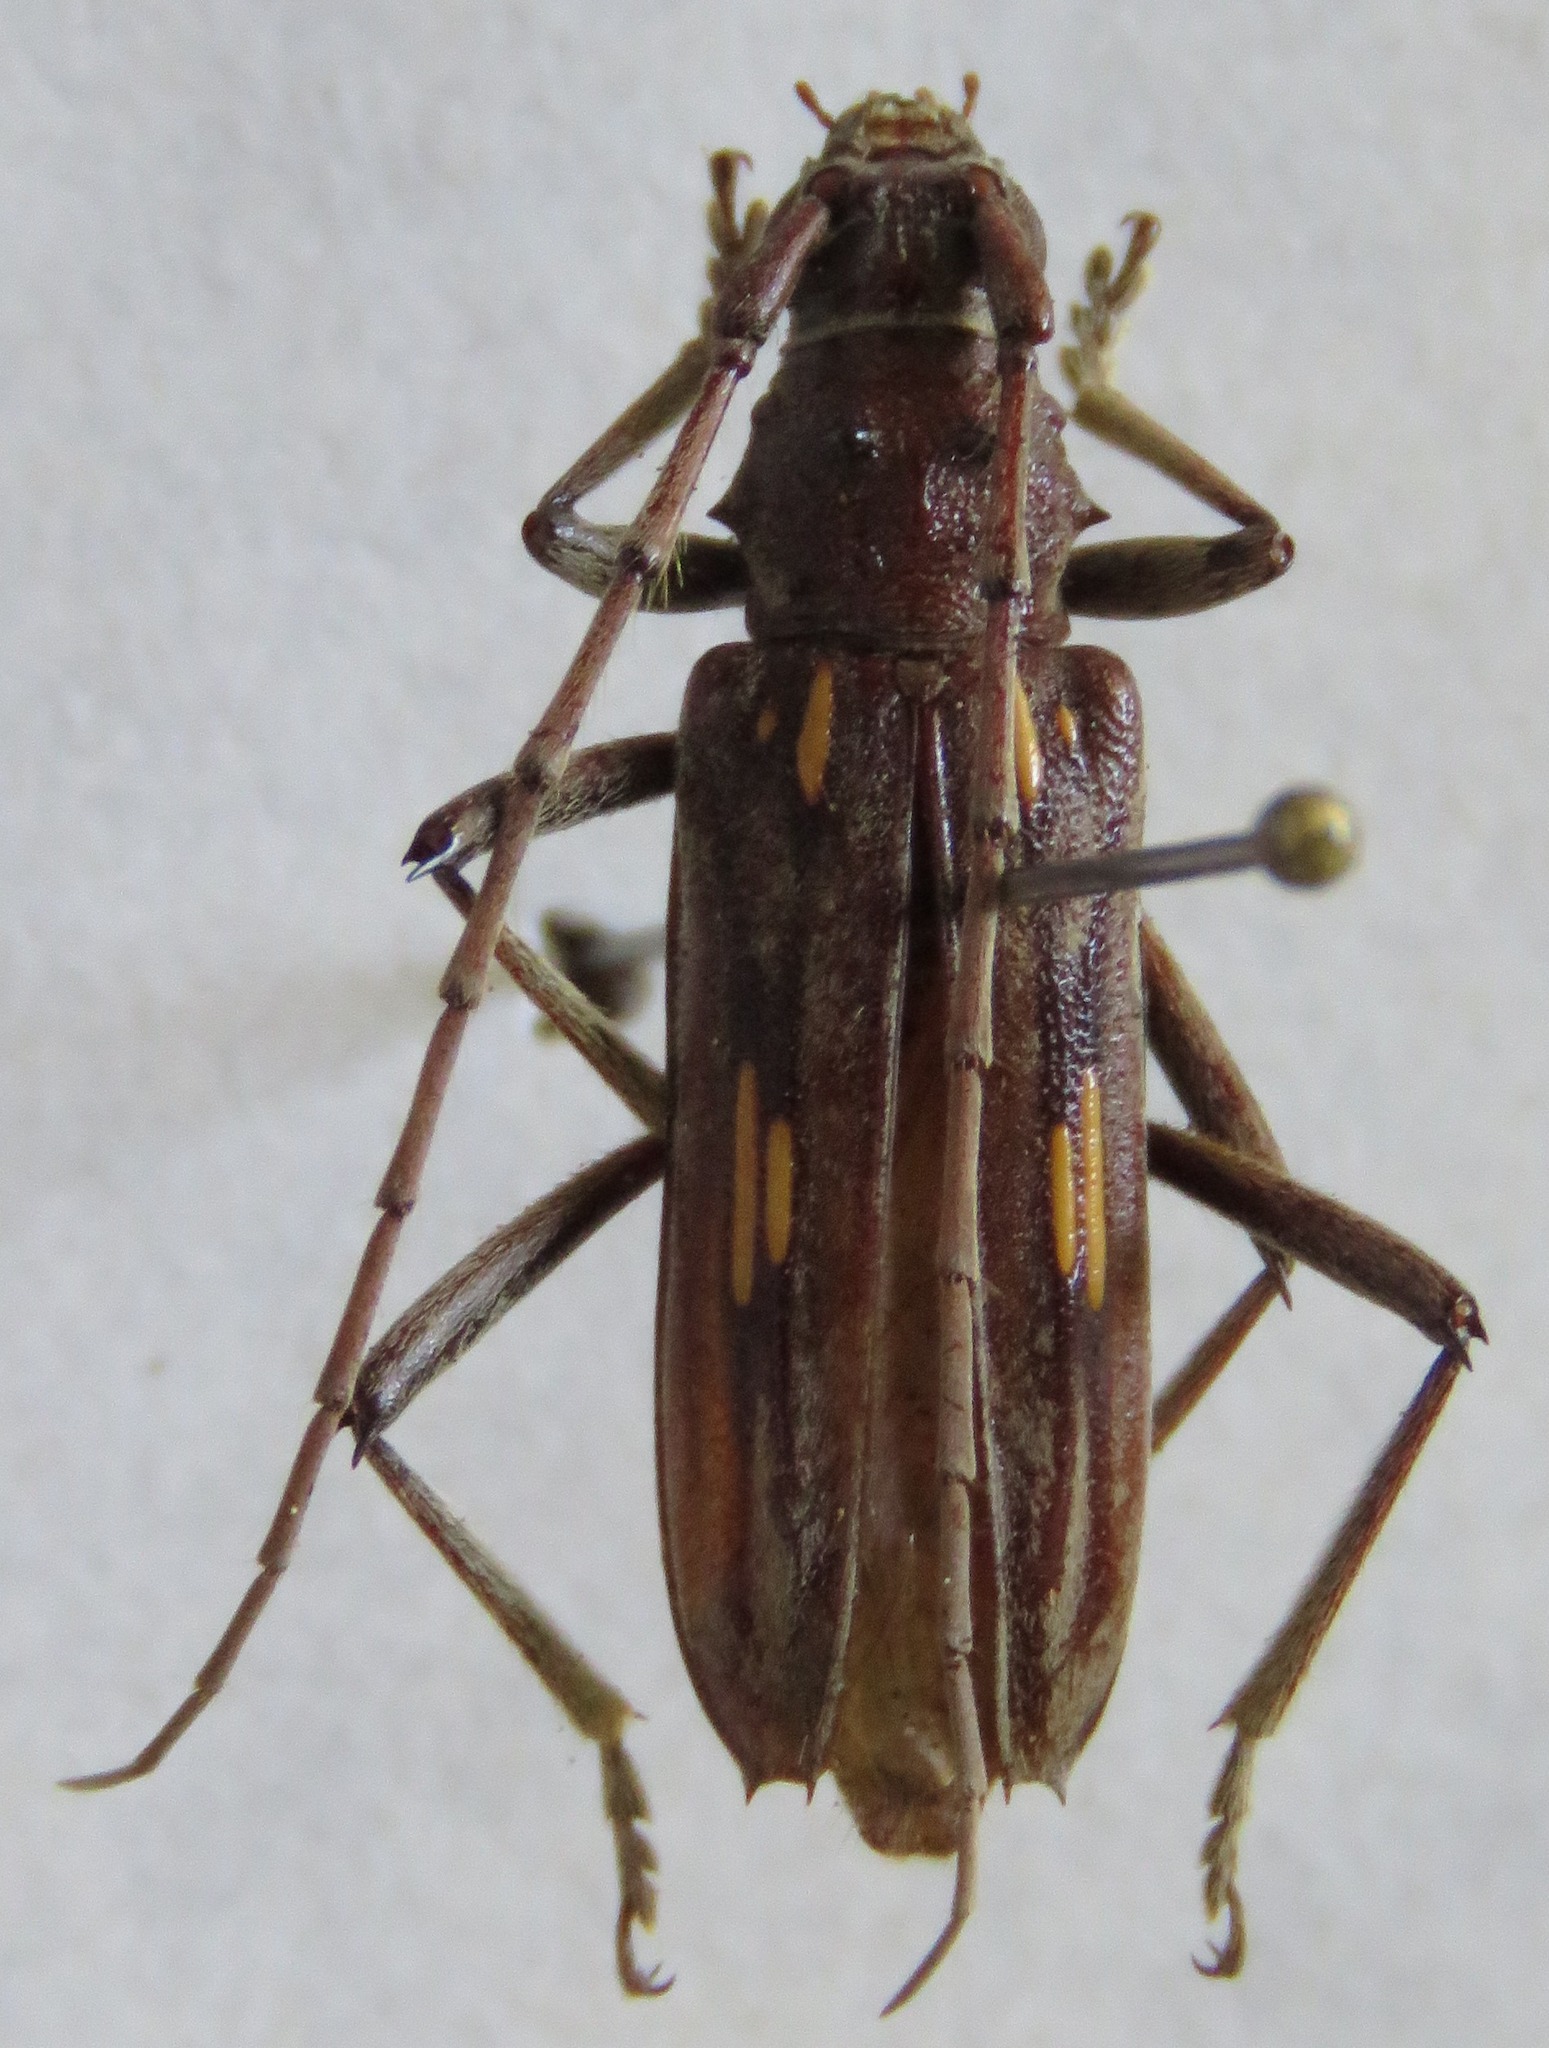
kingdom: Animalia
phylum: Arthropoda
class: Insecta
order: Coleoptera
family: Cerambycidae
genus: Eburia
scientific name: Eburia stigma
